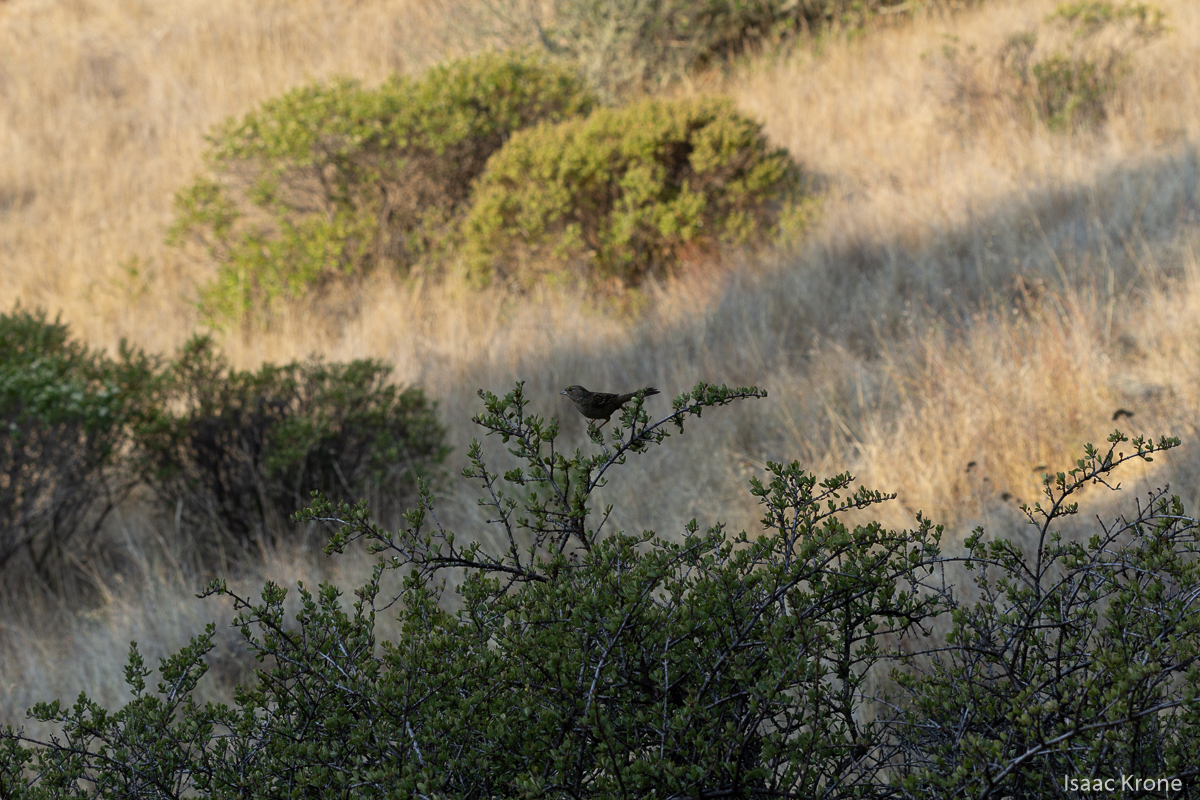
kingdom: Animalia
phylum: Chordata
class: Aves
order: Passeriformes
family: Passerellidae
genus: Zonotrichia
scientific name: Zonotrichia atricapilla
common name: Golden-crowned sparrow
